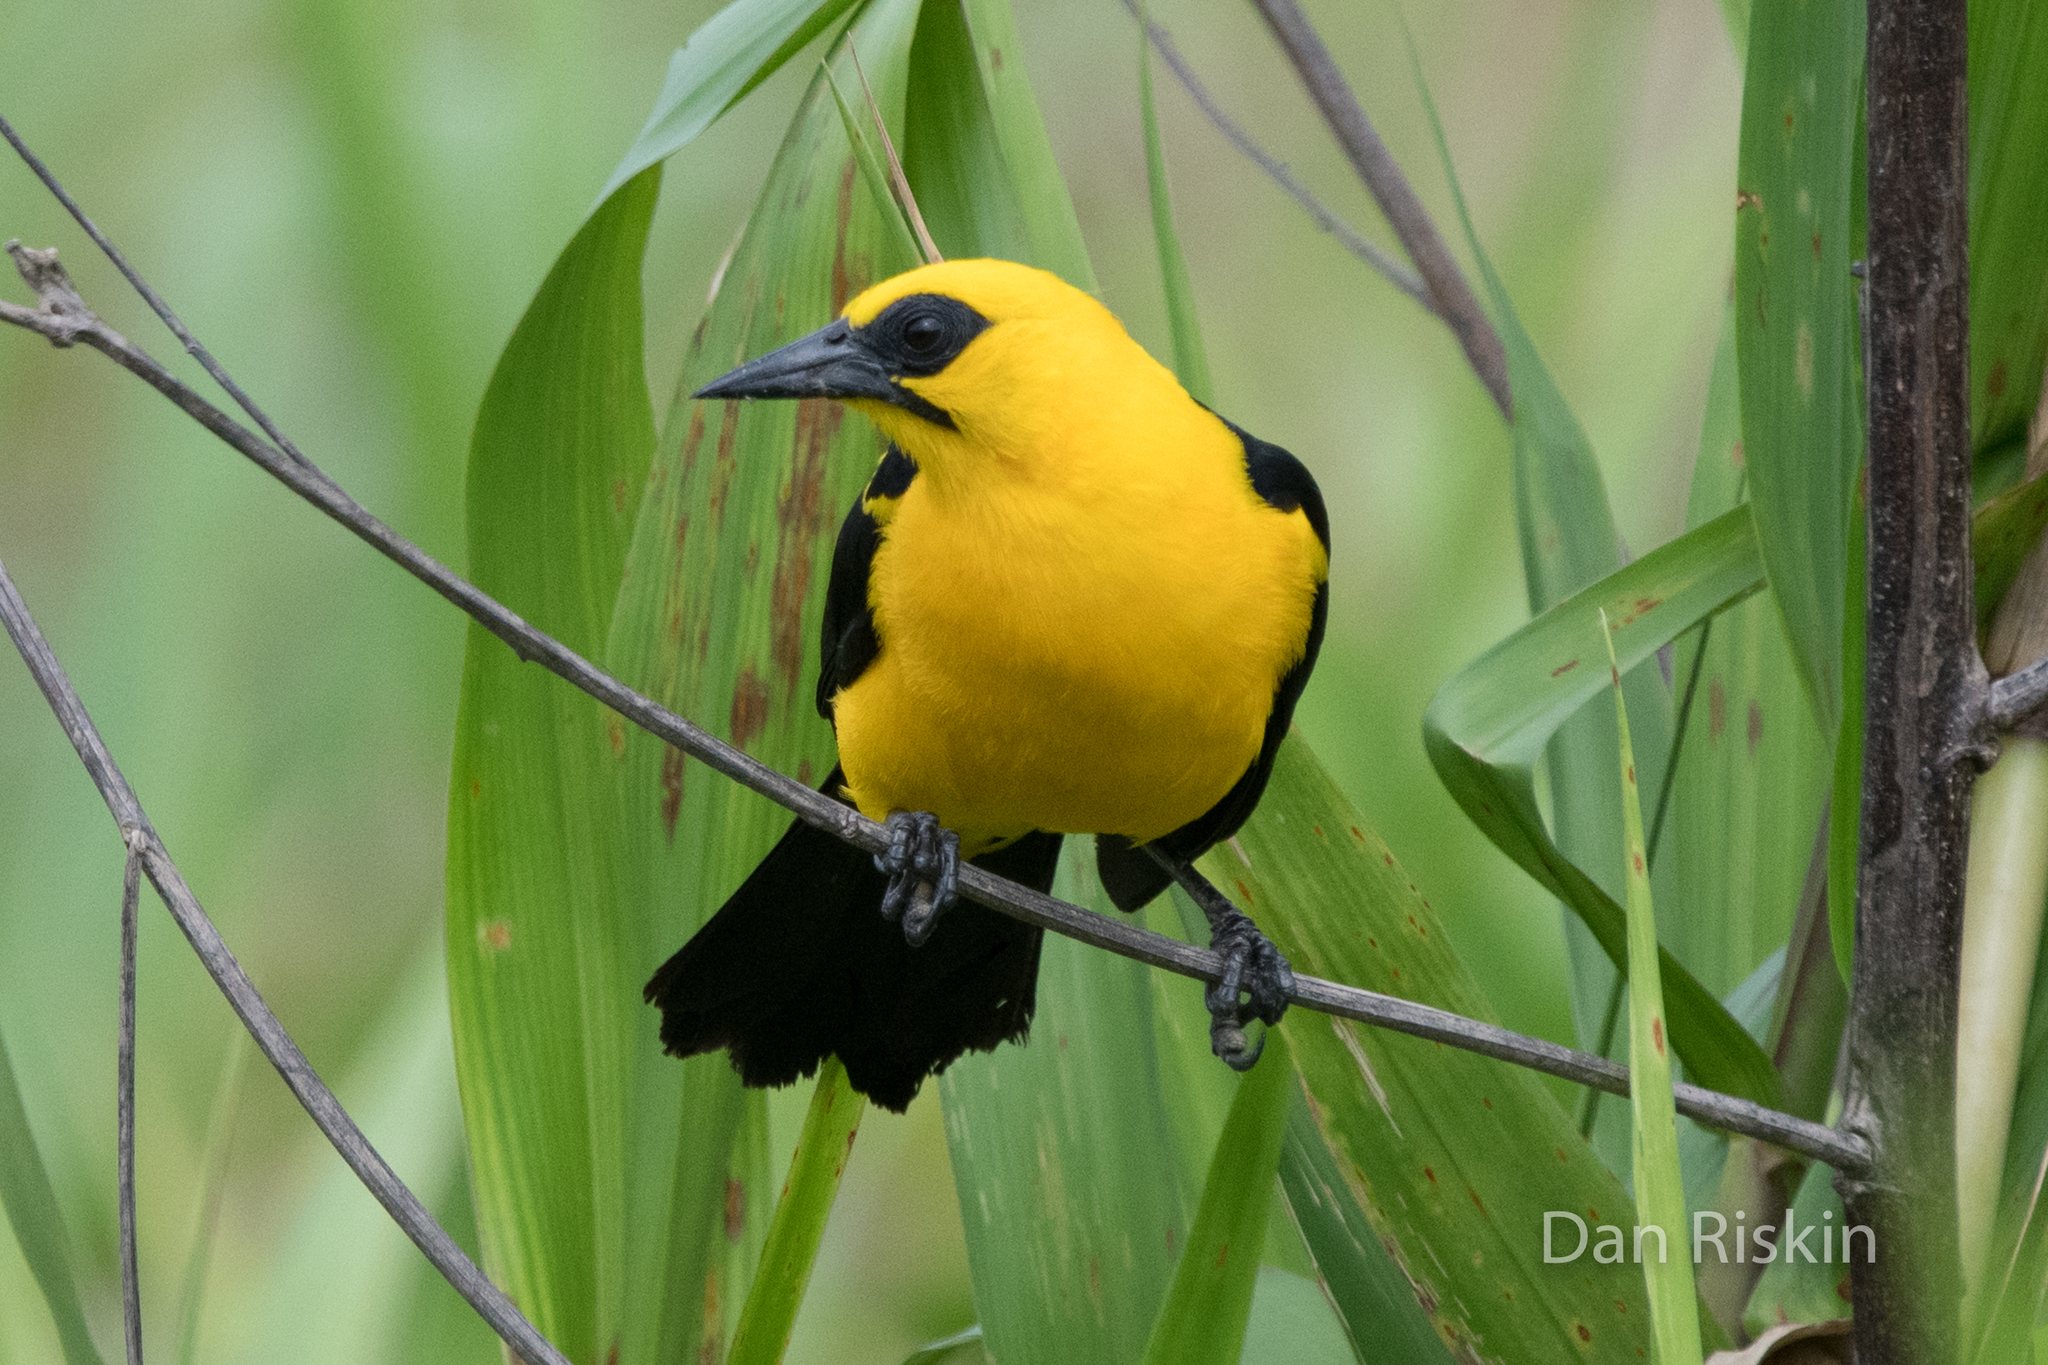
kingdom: Animalia
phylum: Chordata
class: Aves
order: Passeriformes
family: Icteridae
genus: Gymnomystax
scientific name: Gymnomystax mexicanus
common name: Oriole blackbird
